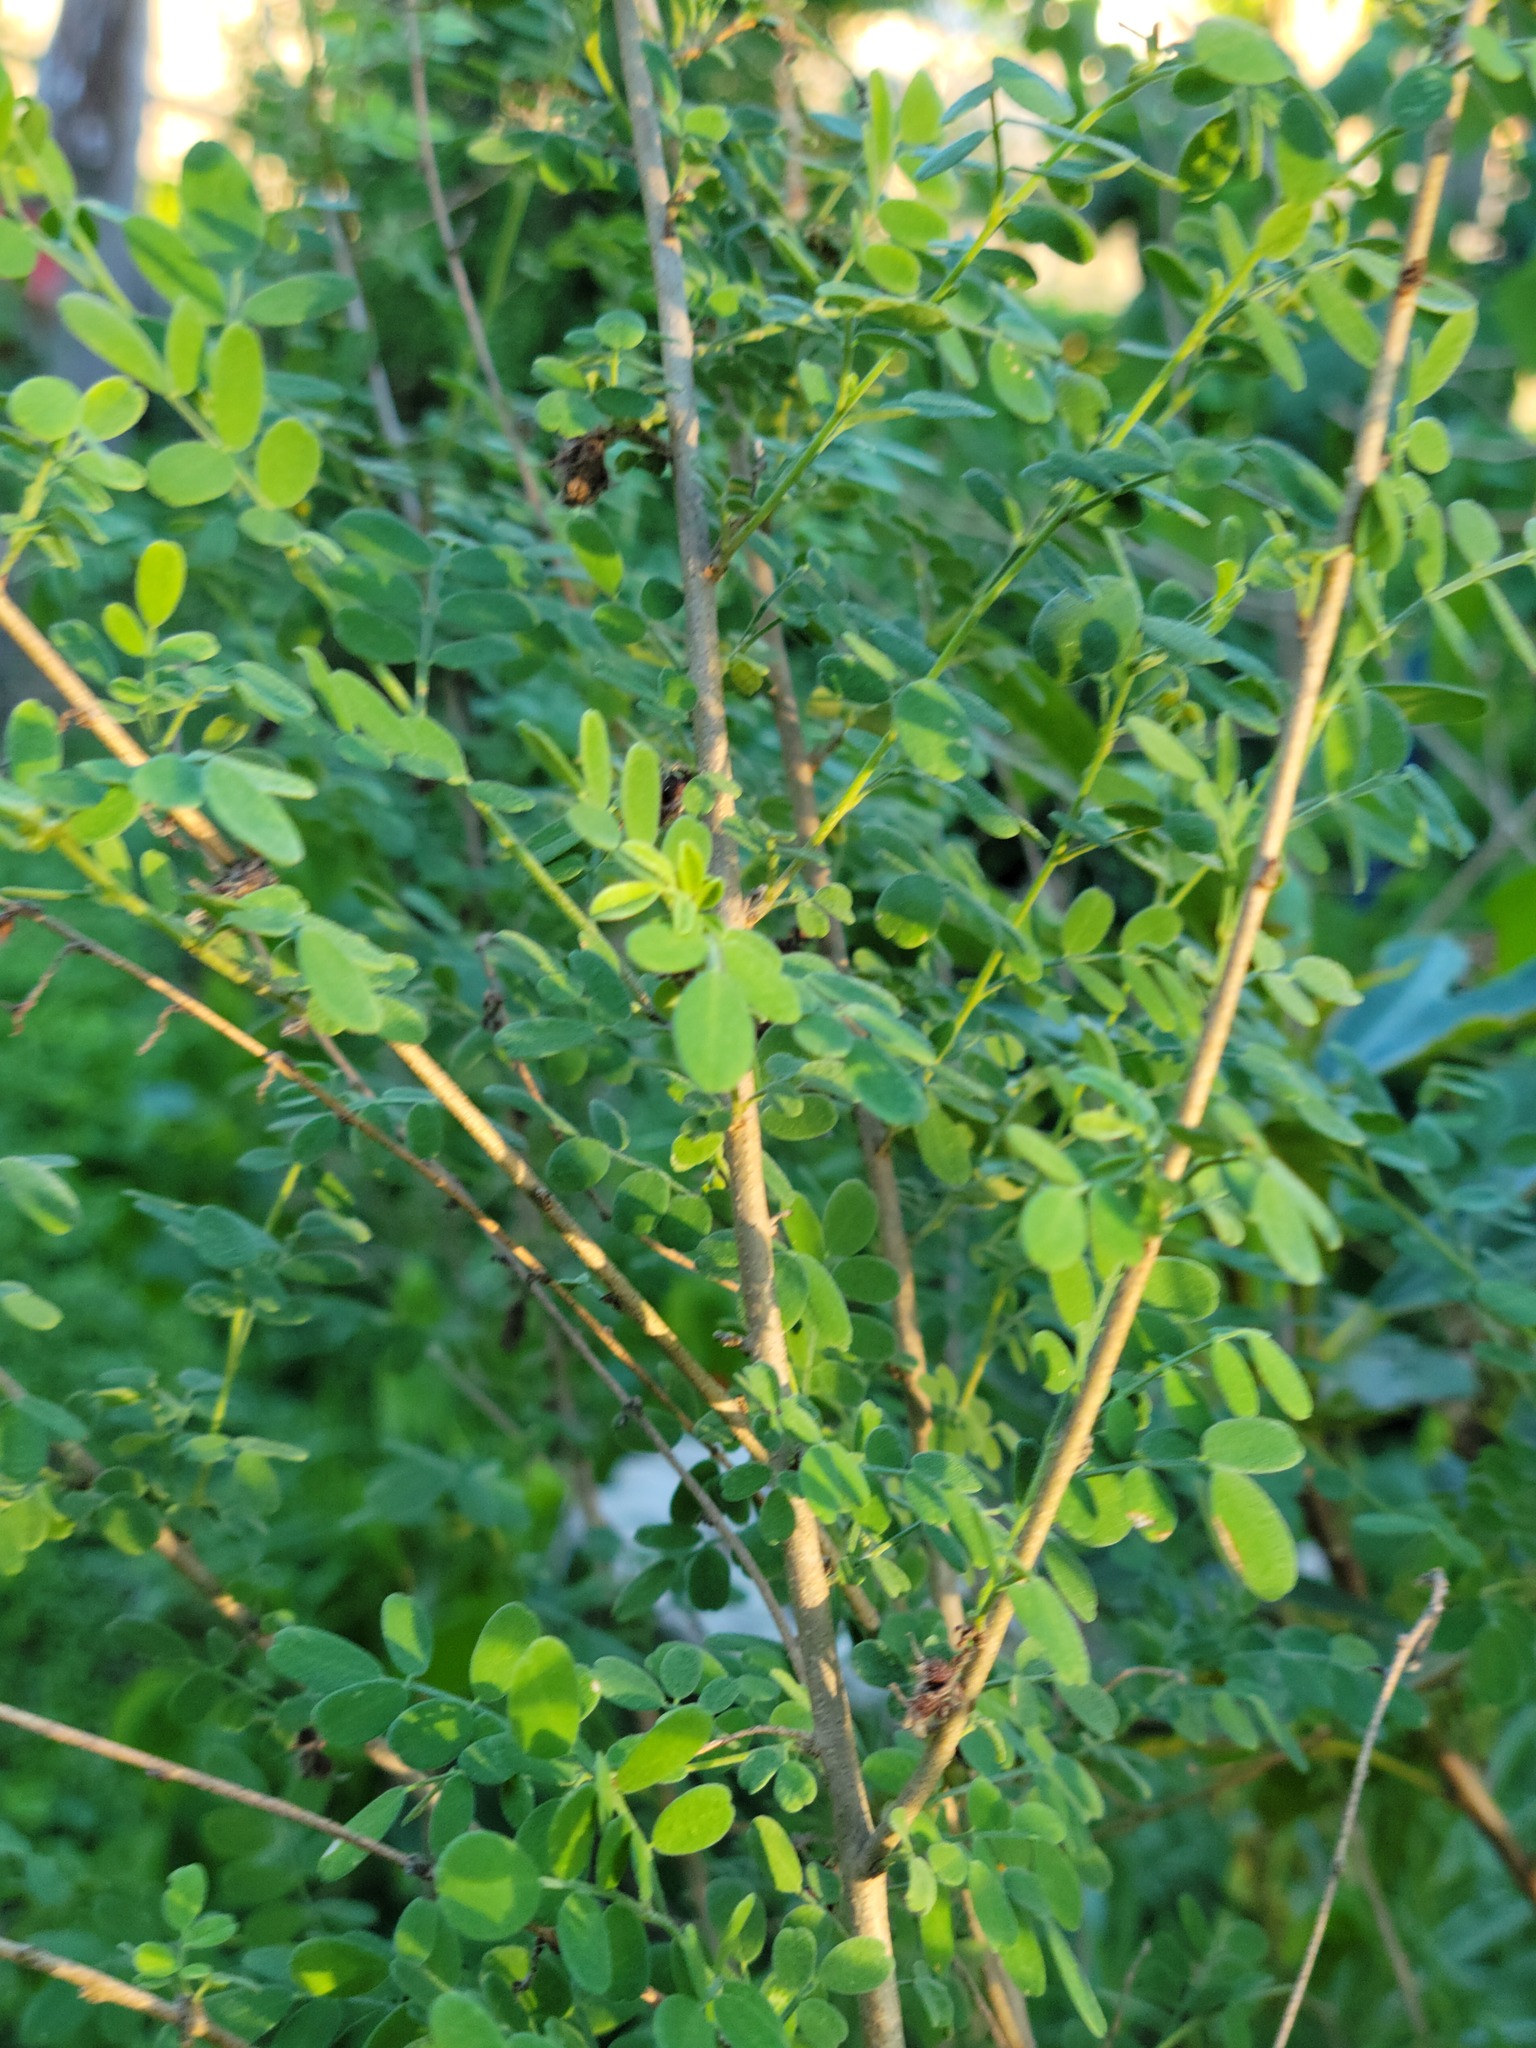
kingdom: Plantae
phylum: Tracheophyta
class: Magnoliopsida
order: Fabales
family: Fabaceae
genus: Coursetia
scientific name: Coursetia axillaris
